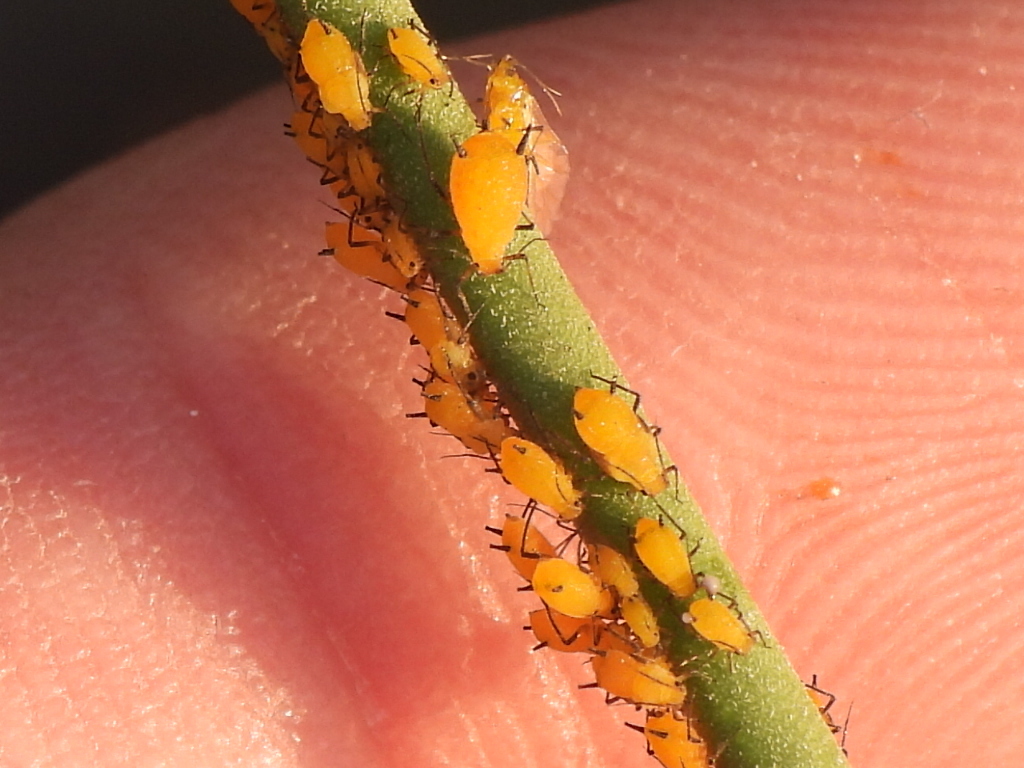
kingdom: Animalia
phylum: Arthropoda
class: Insecta
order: Hemiptera
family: Aphididae
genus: Aphis
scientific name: Aphis nerii
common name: Oleander aphid
